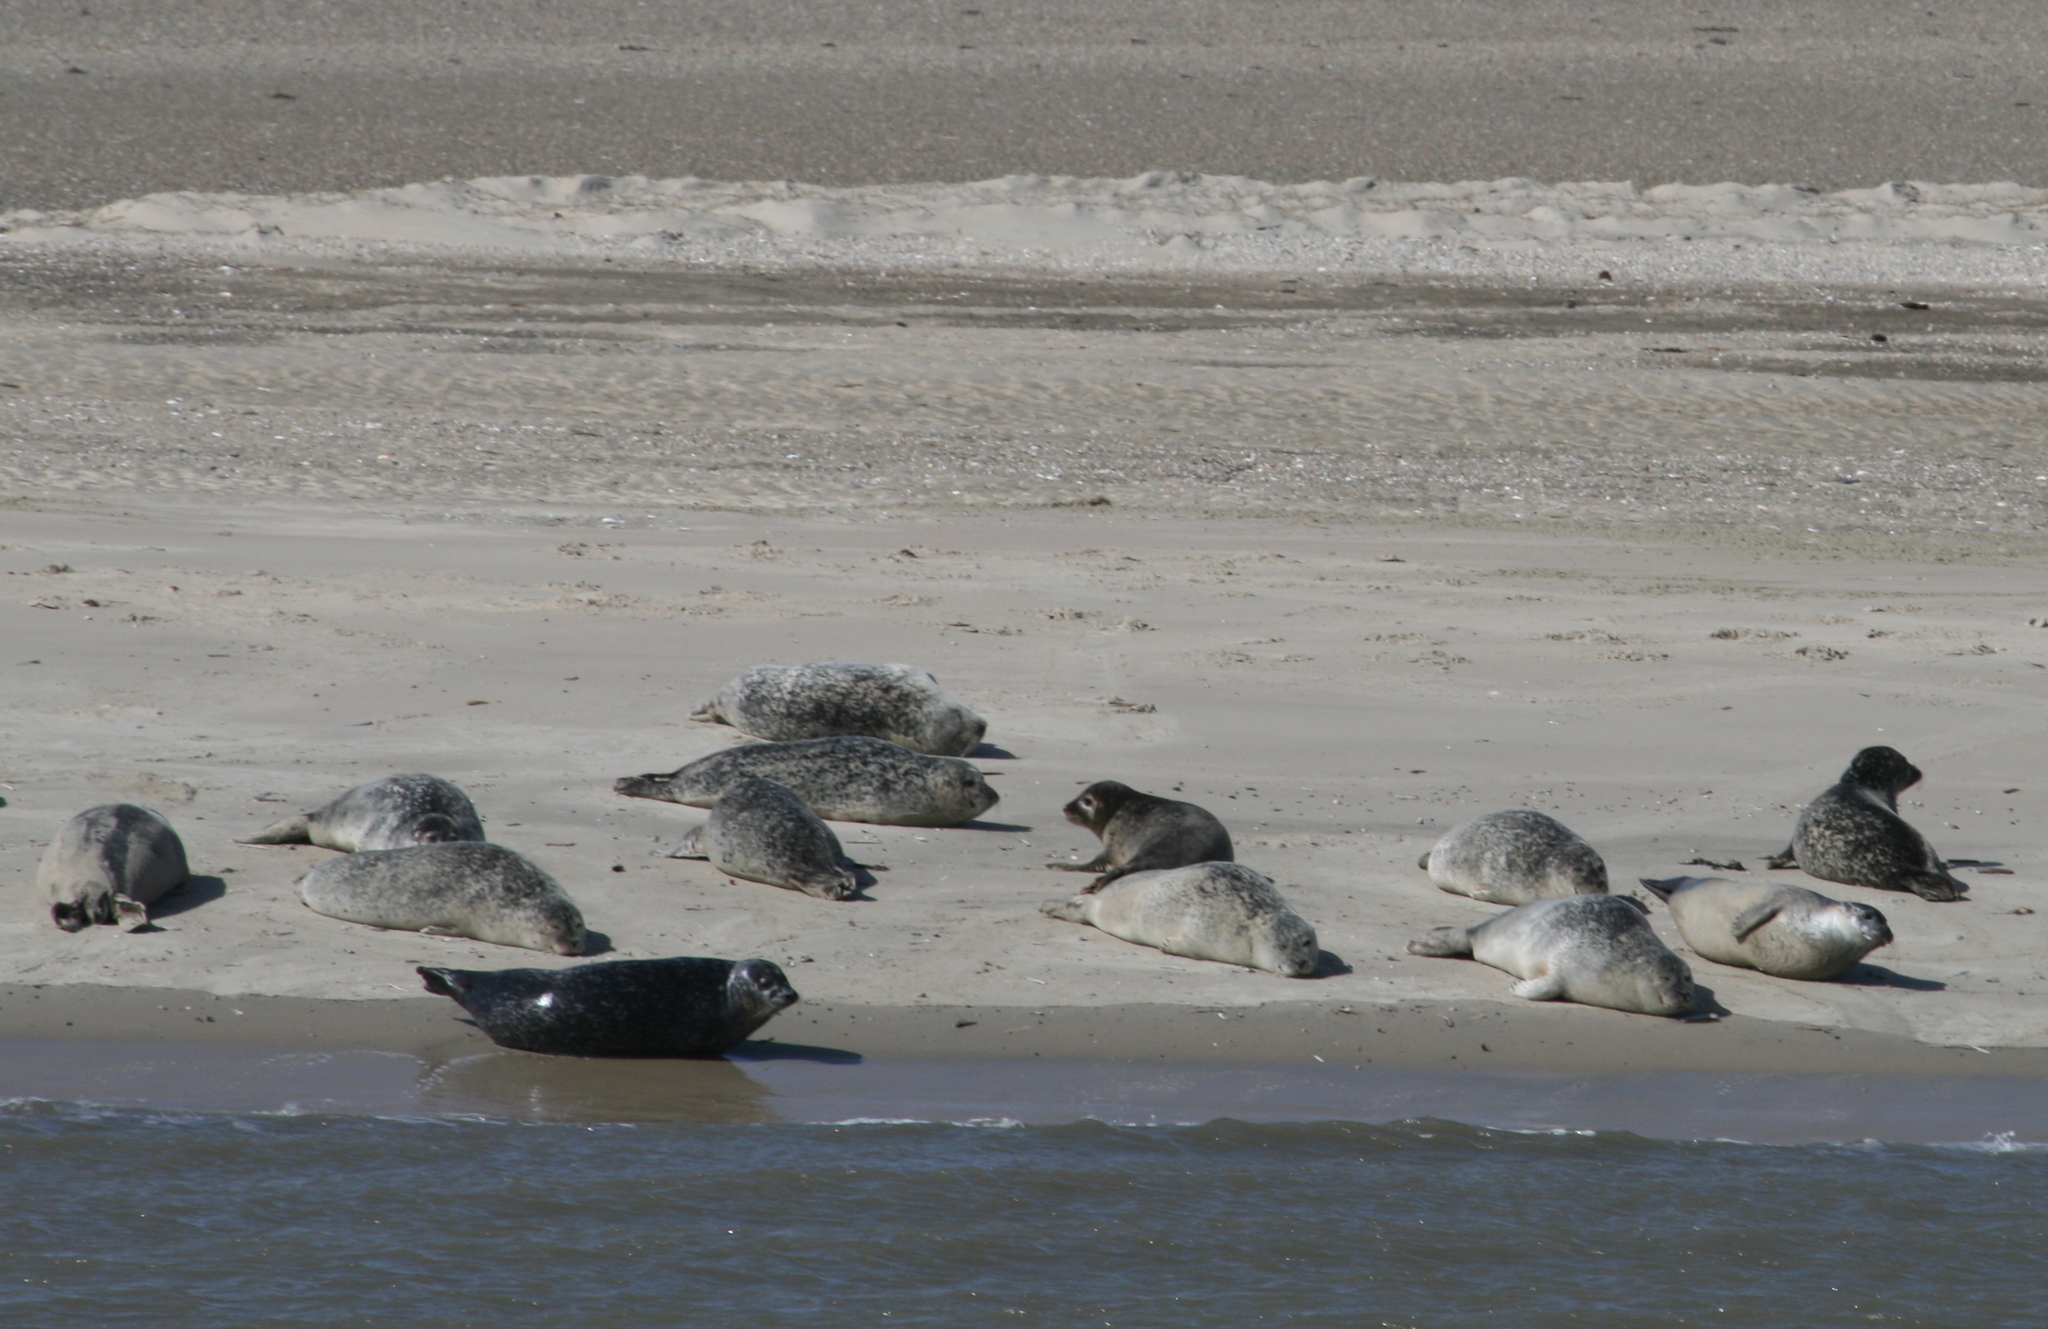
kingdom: Animalia
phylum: Chordata
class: Mammalia
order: Carnivora
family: Phocidae
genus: Phoca
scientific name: Phoca vitulina
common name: Harbor seal
